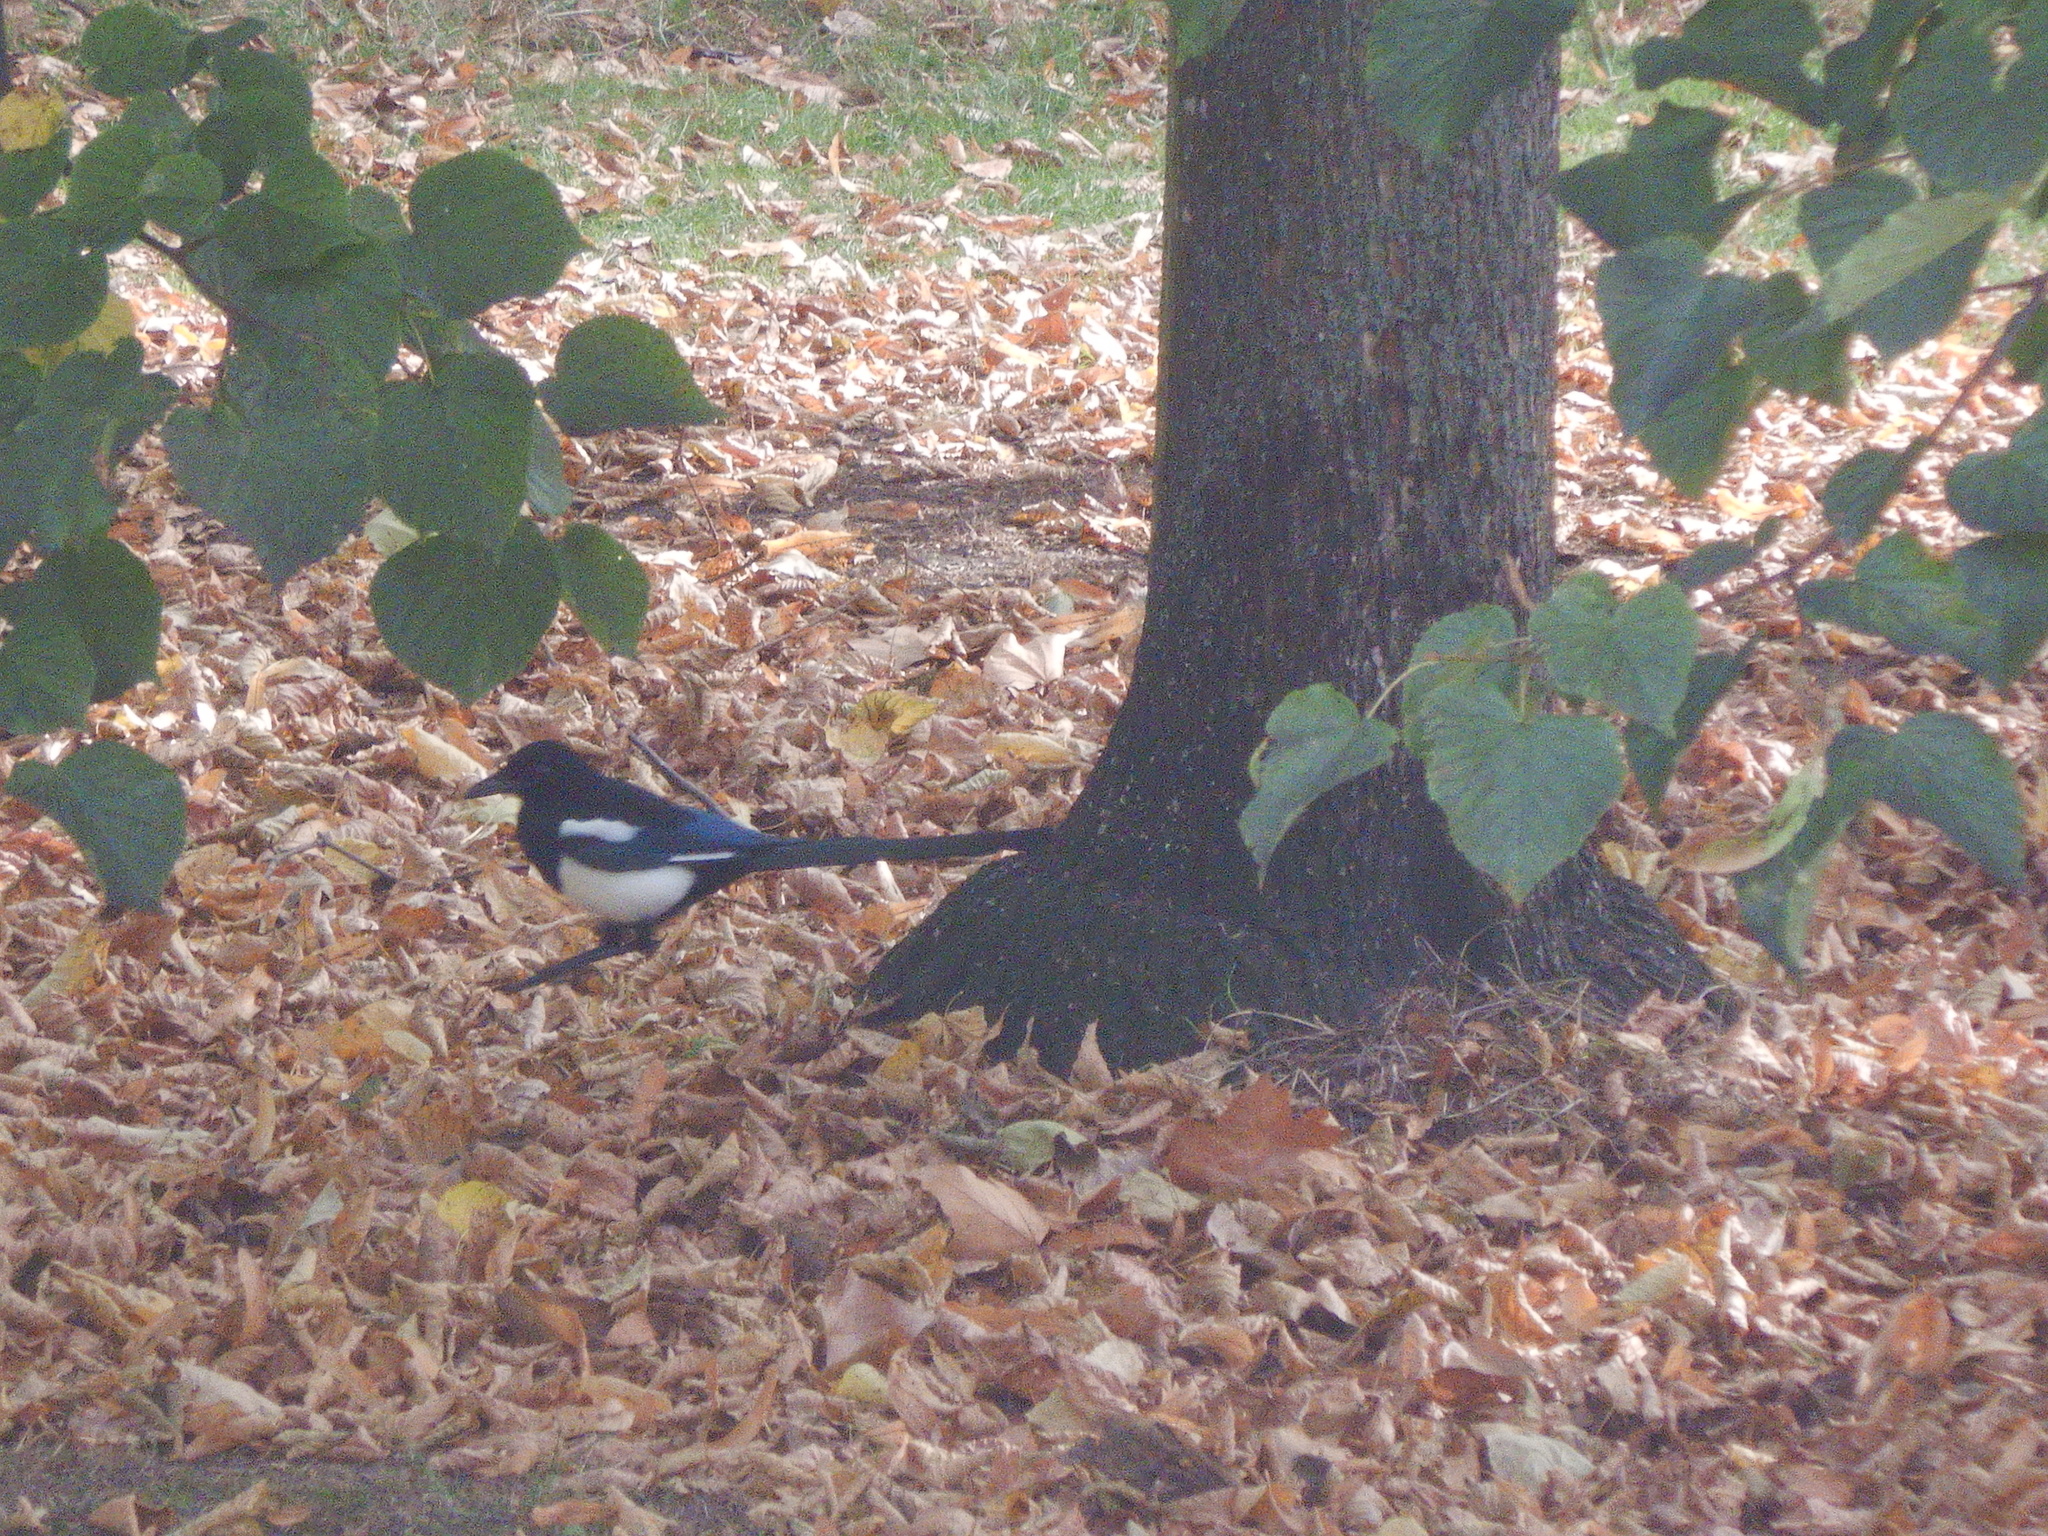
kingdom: Animalia
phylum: Chordata
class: Aves
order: Passeriformes
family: Corvidae
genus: Pica
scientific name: Pica pica
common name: Eurasian magpie
